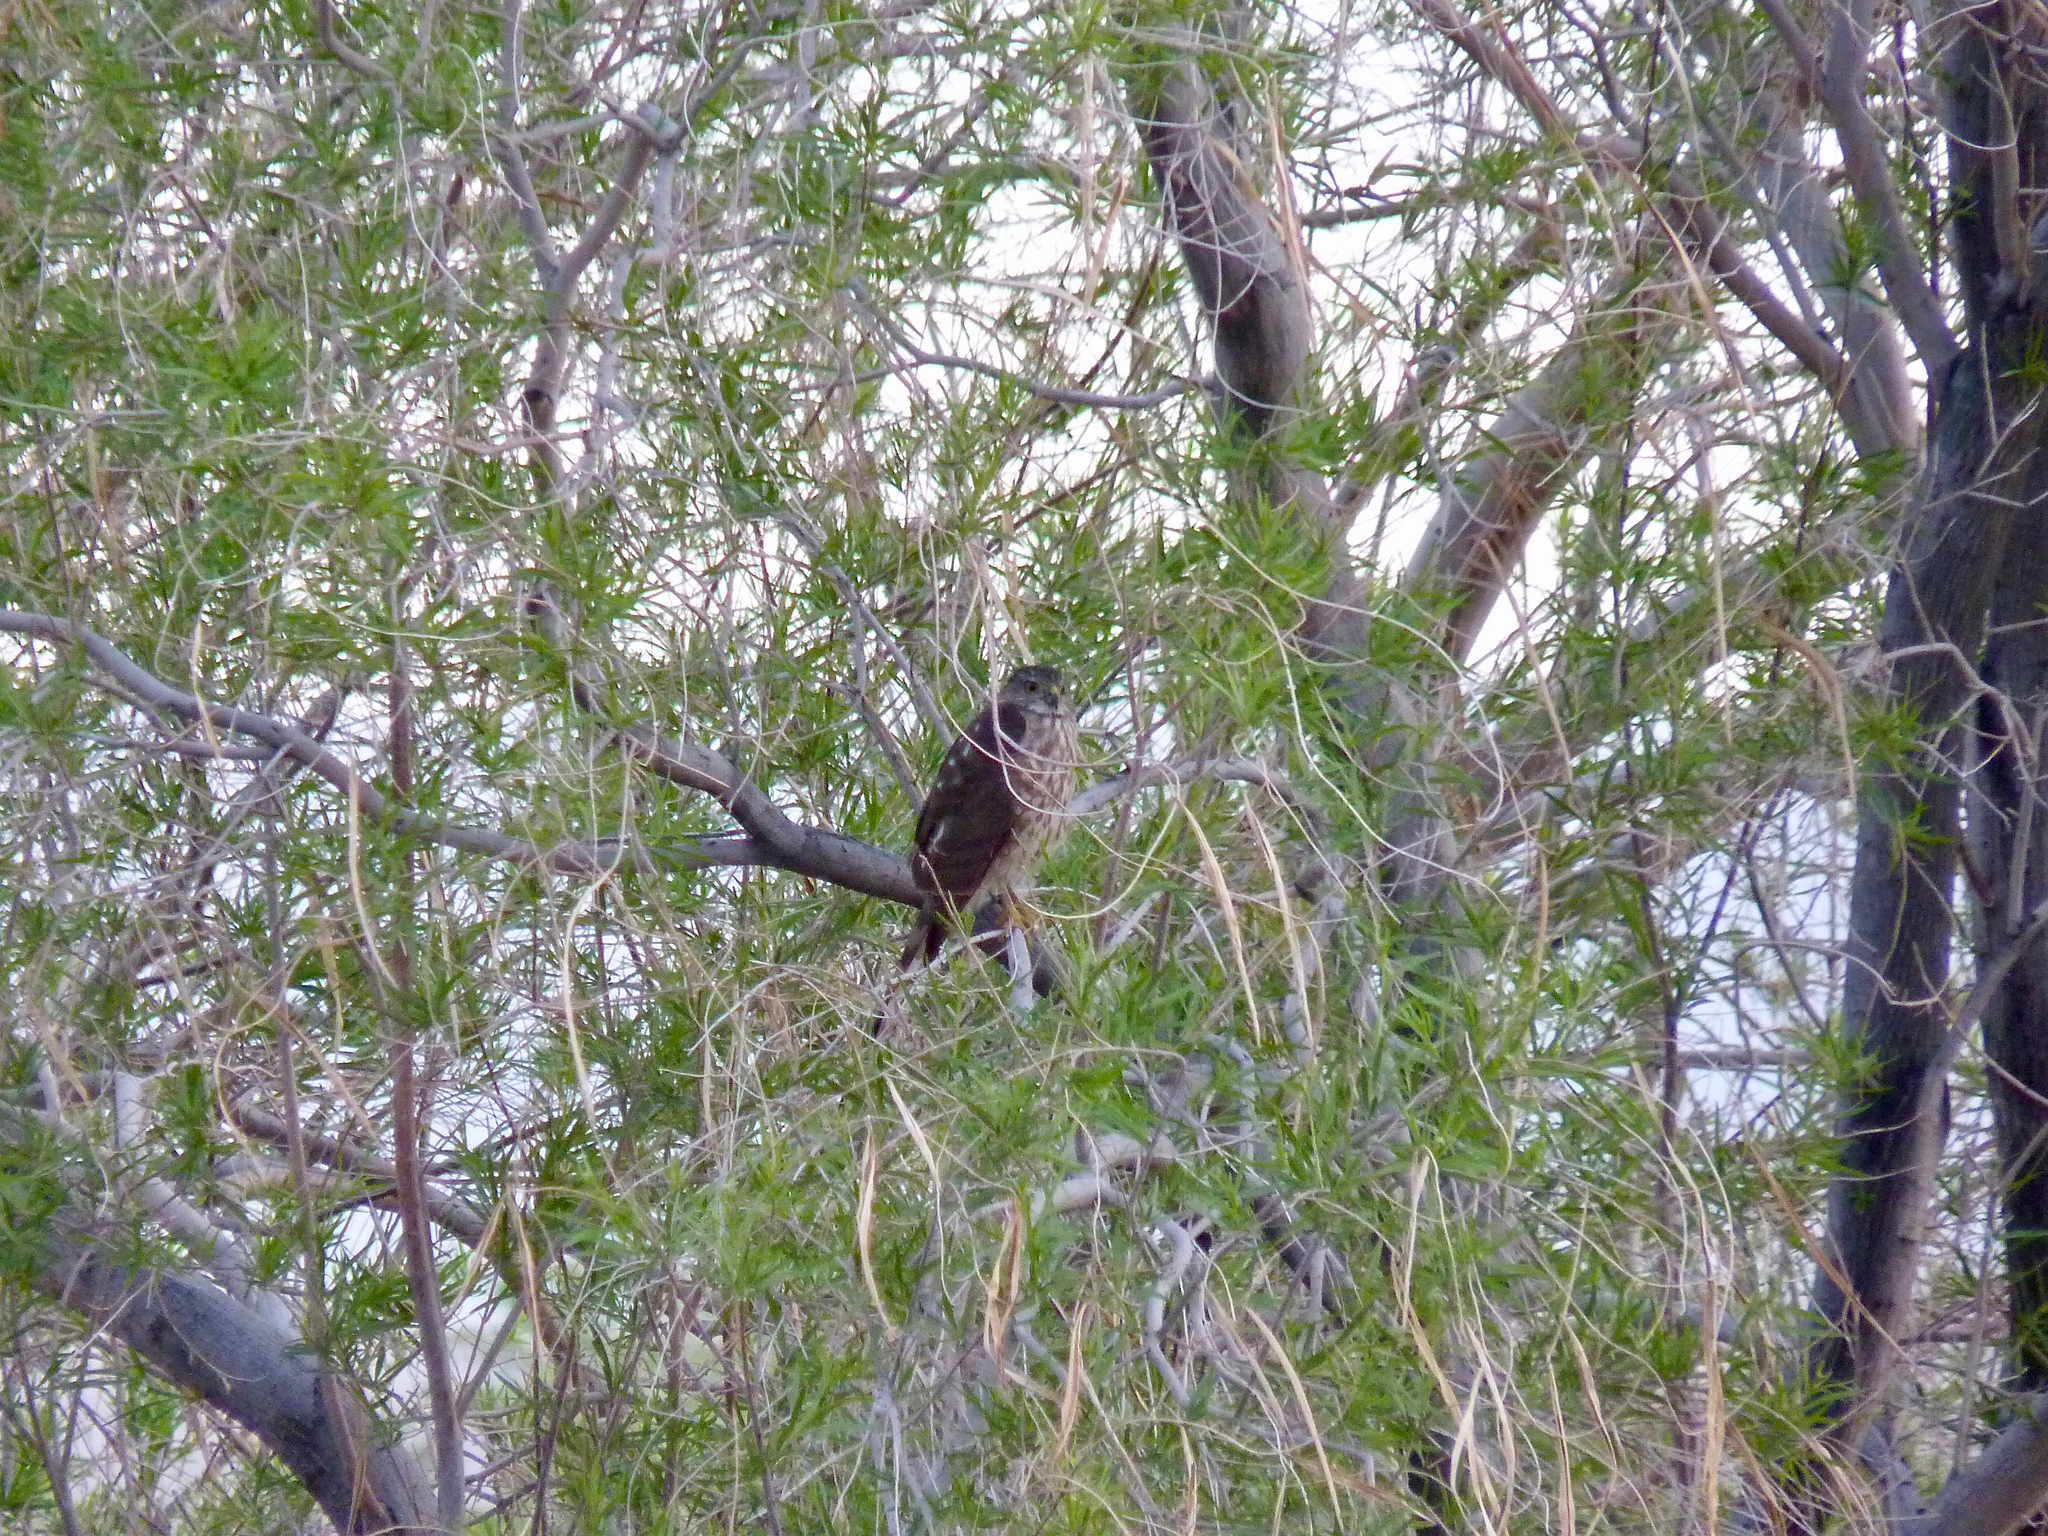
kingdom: Animalia
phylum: Chordata
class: Aves
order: Accipitriformes
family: Accipitridae
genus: Accipiter
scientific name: Accipiter cooperii
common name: Cooper's hawk
